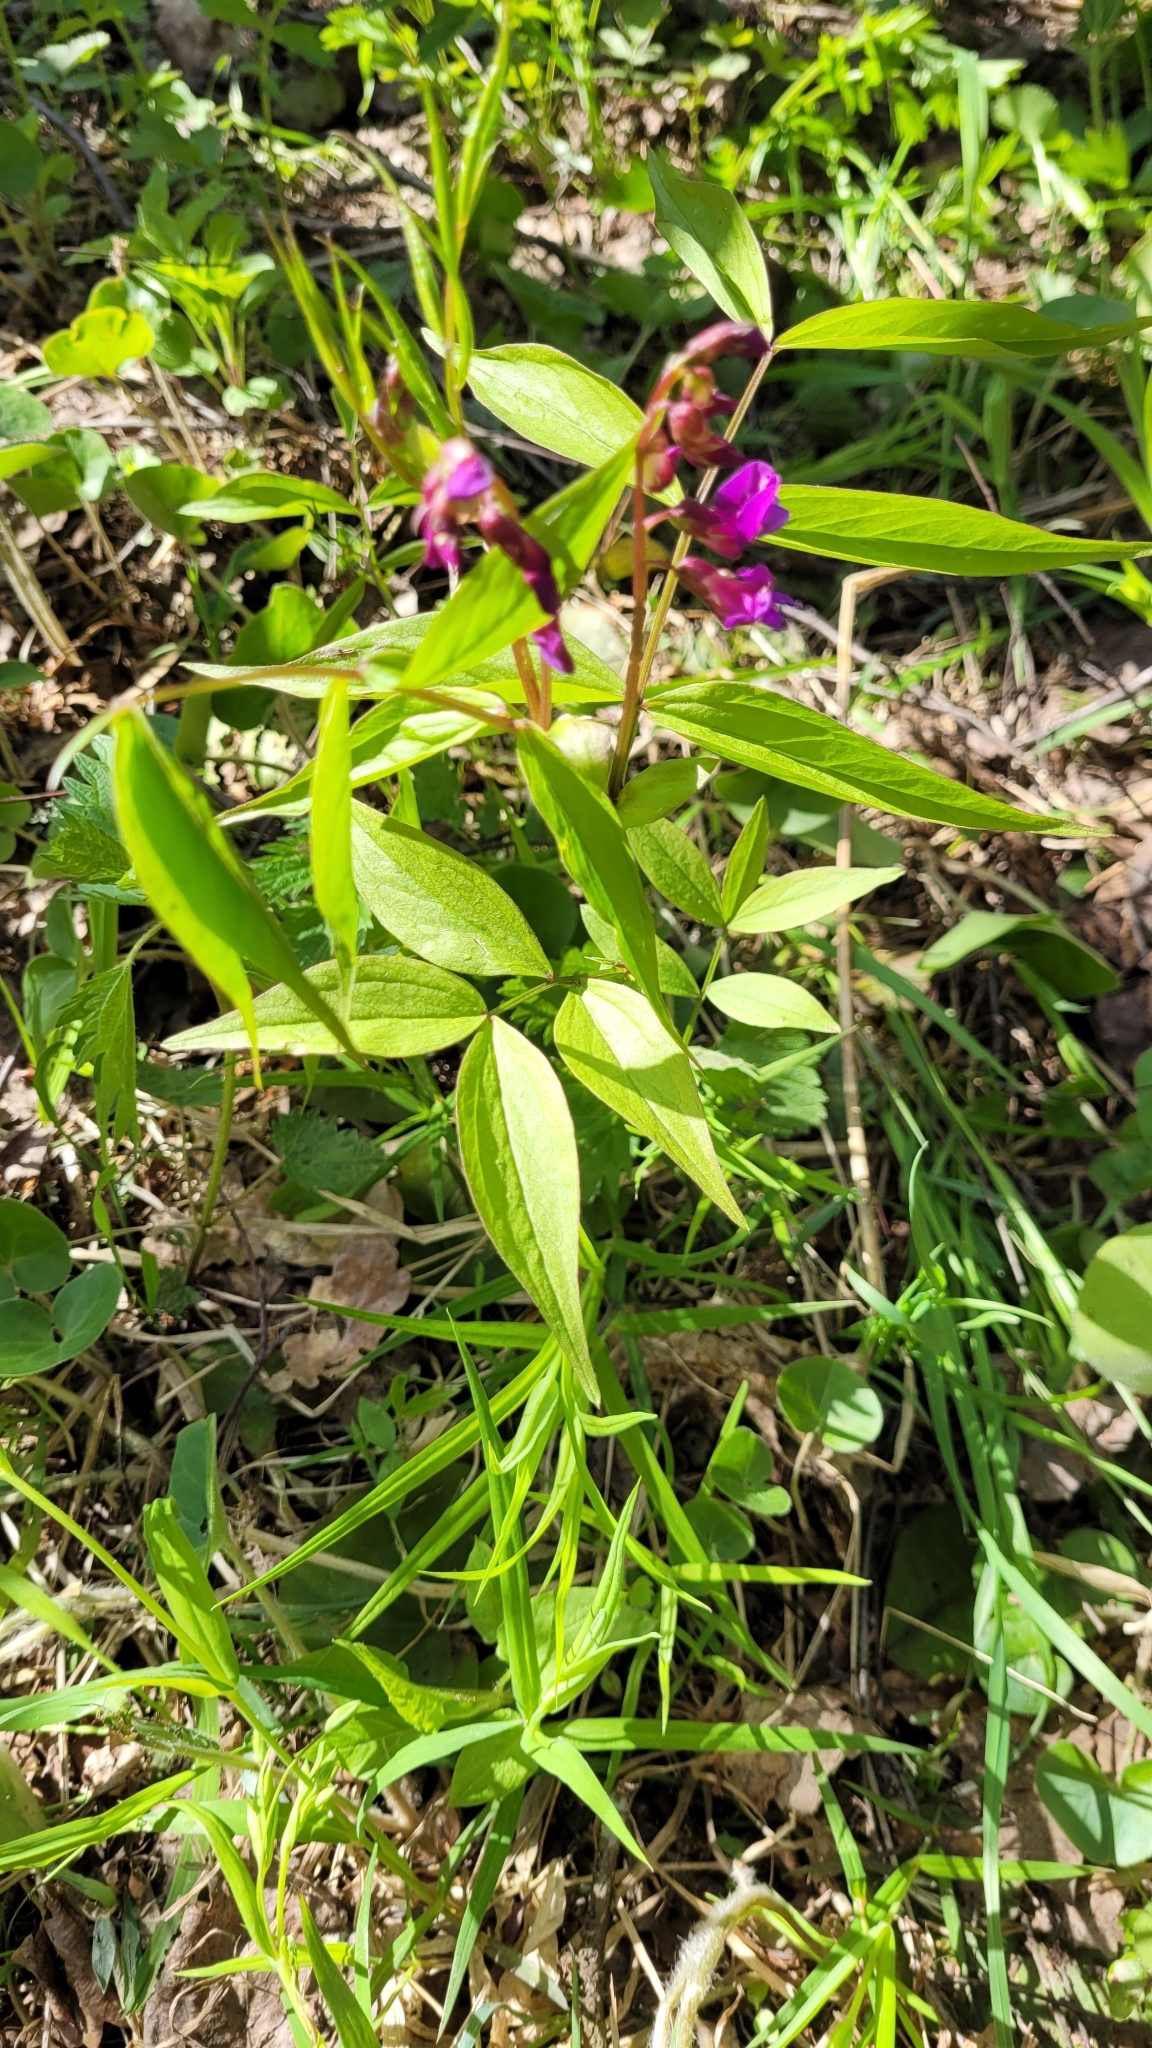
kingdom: Plantae
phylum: Tracheophyta
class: Magnoliopsida
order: Fabales
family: Fabaceae
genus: Lathyrus
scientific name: Lathyrus vernus
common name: Spring pea
